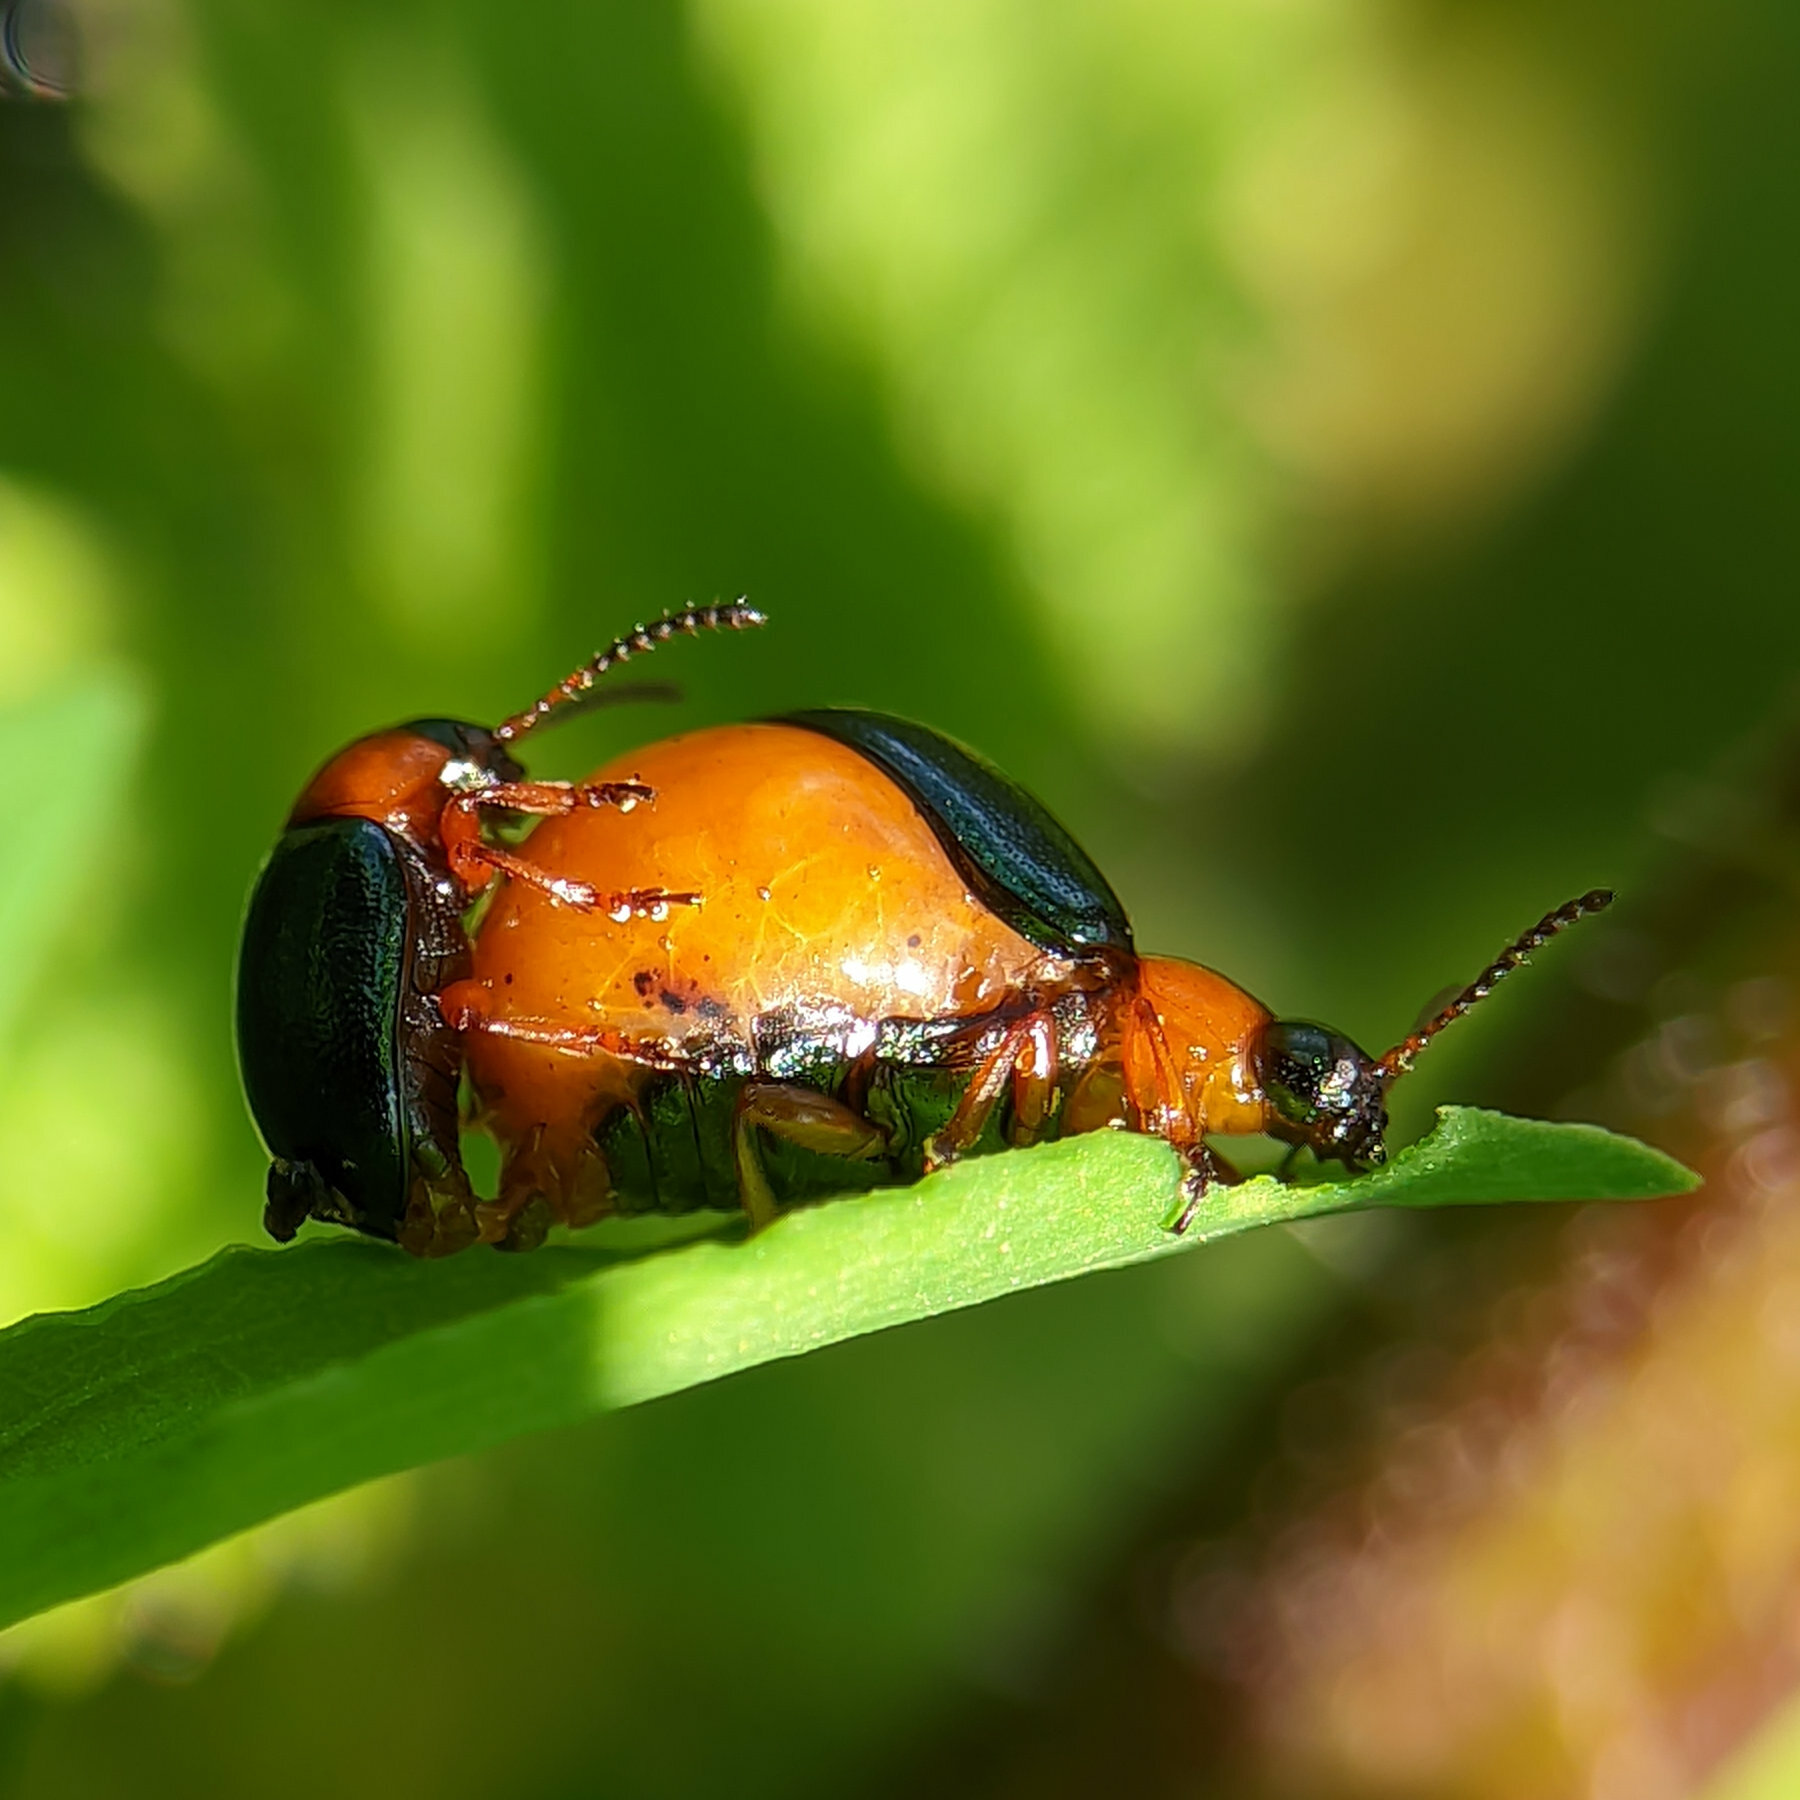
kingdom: Animalia
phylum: Arthropoda
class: Insecta
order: Coleoptera
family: Chrysomelidae
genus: Gastrophysa
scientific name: Gastrophysa polygoni
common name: Knotweed leaf beetle
